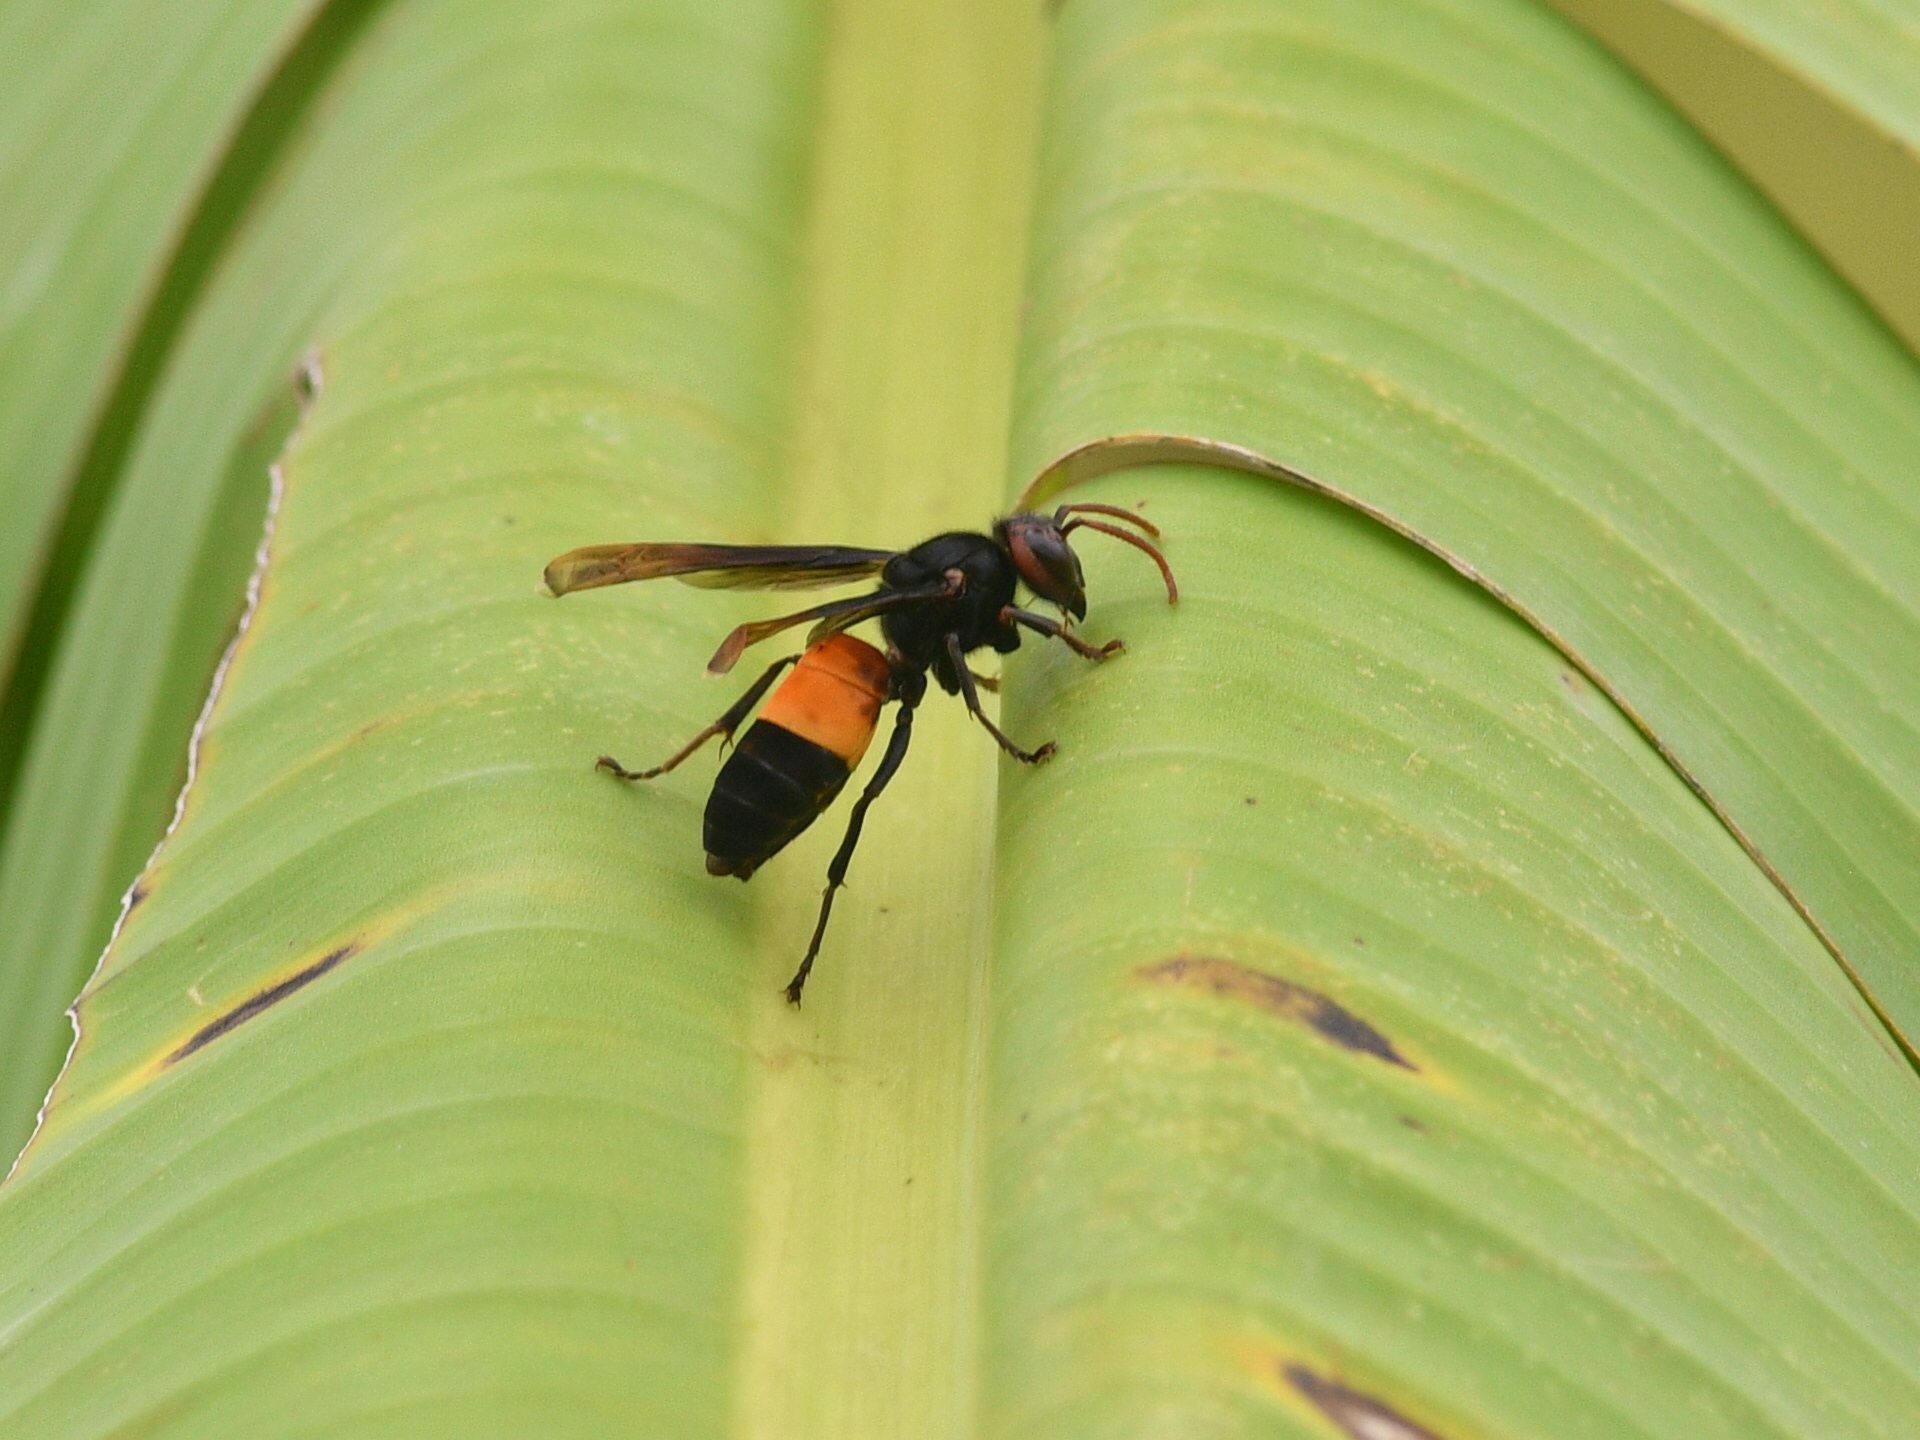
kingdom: Animalia
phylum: Arthropoda
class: Insecta
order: Hymenoptera
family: Vespidae
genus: Vespa
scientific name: Vespa affinis
